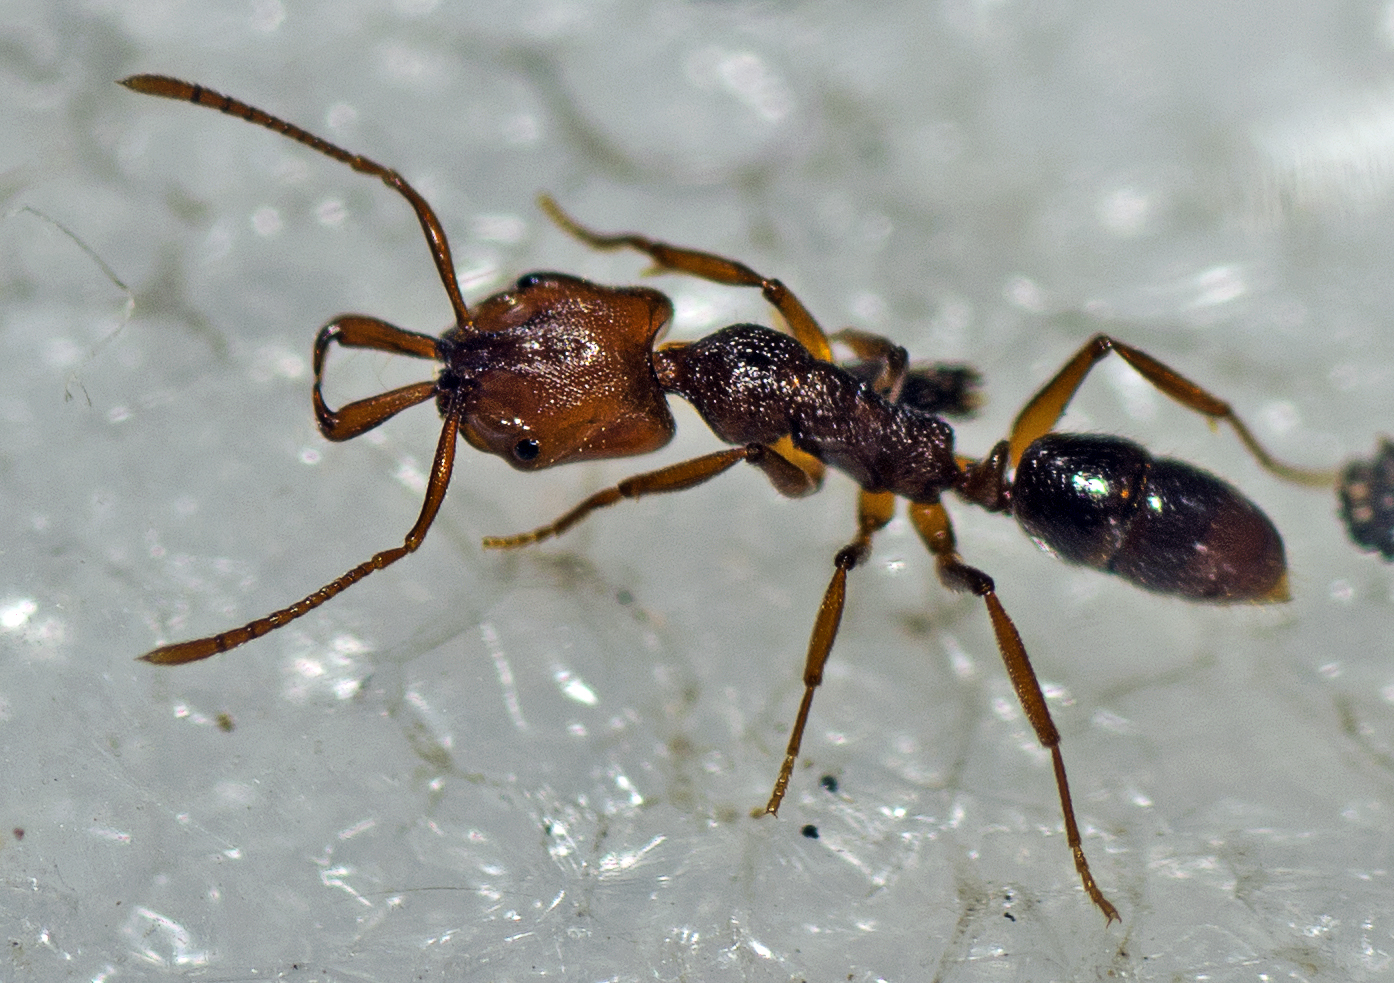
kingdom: Animalia
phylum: Arthropoda
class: Insecta
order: Hymenoptera
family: Formicidae
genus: Anochetus
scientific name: Anochetus graeffei
